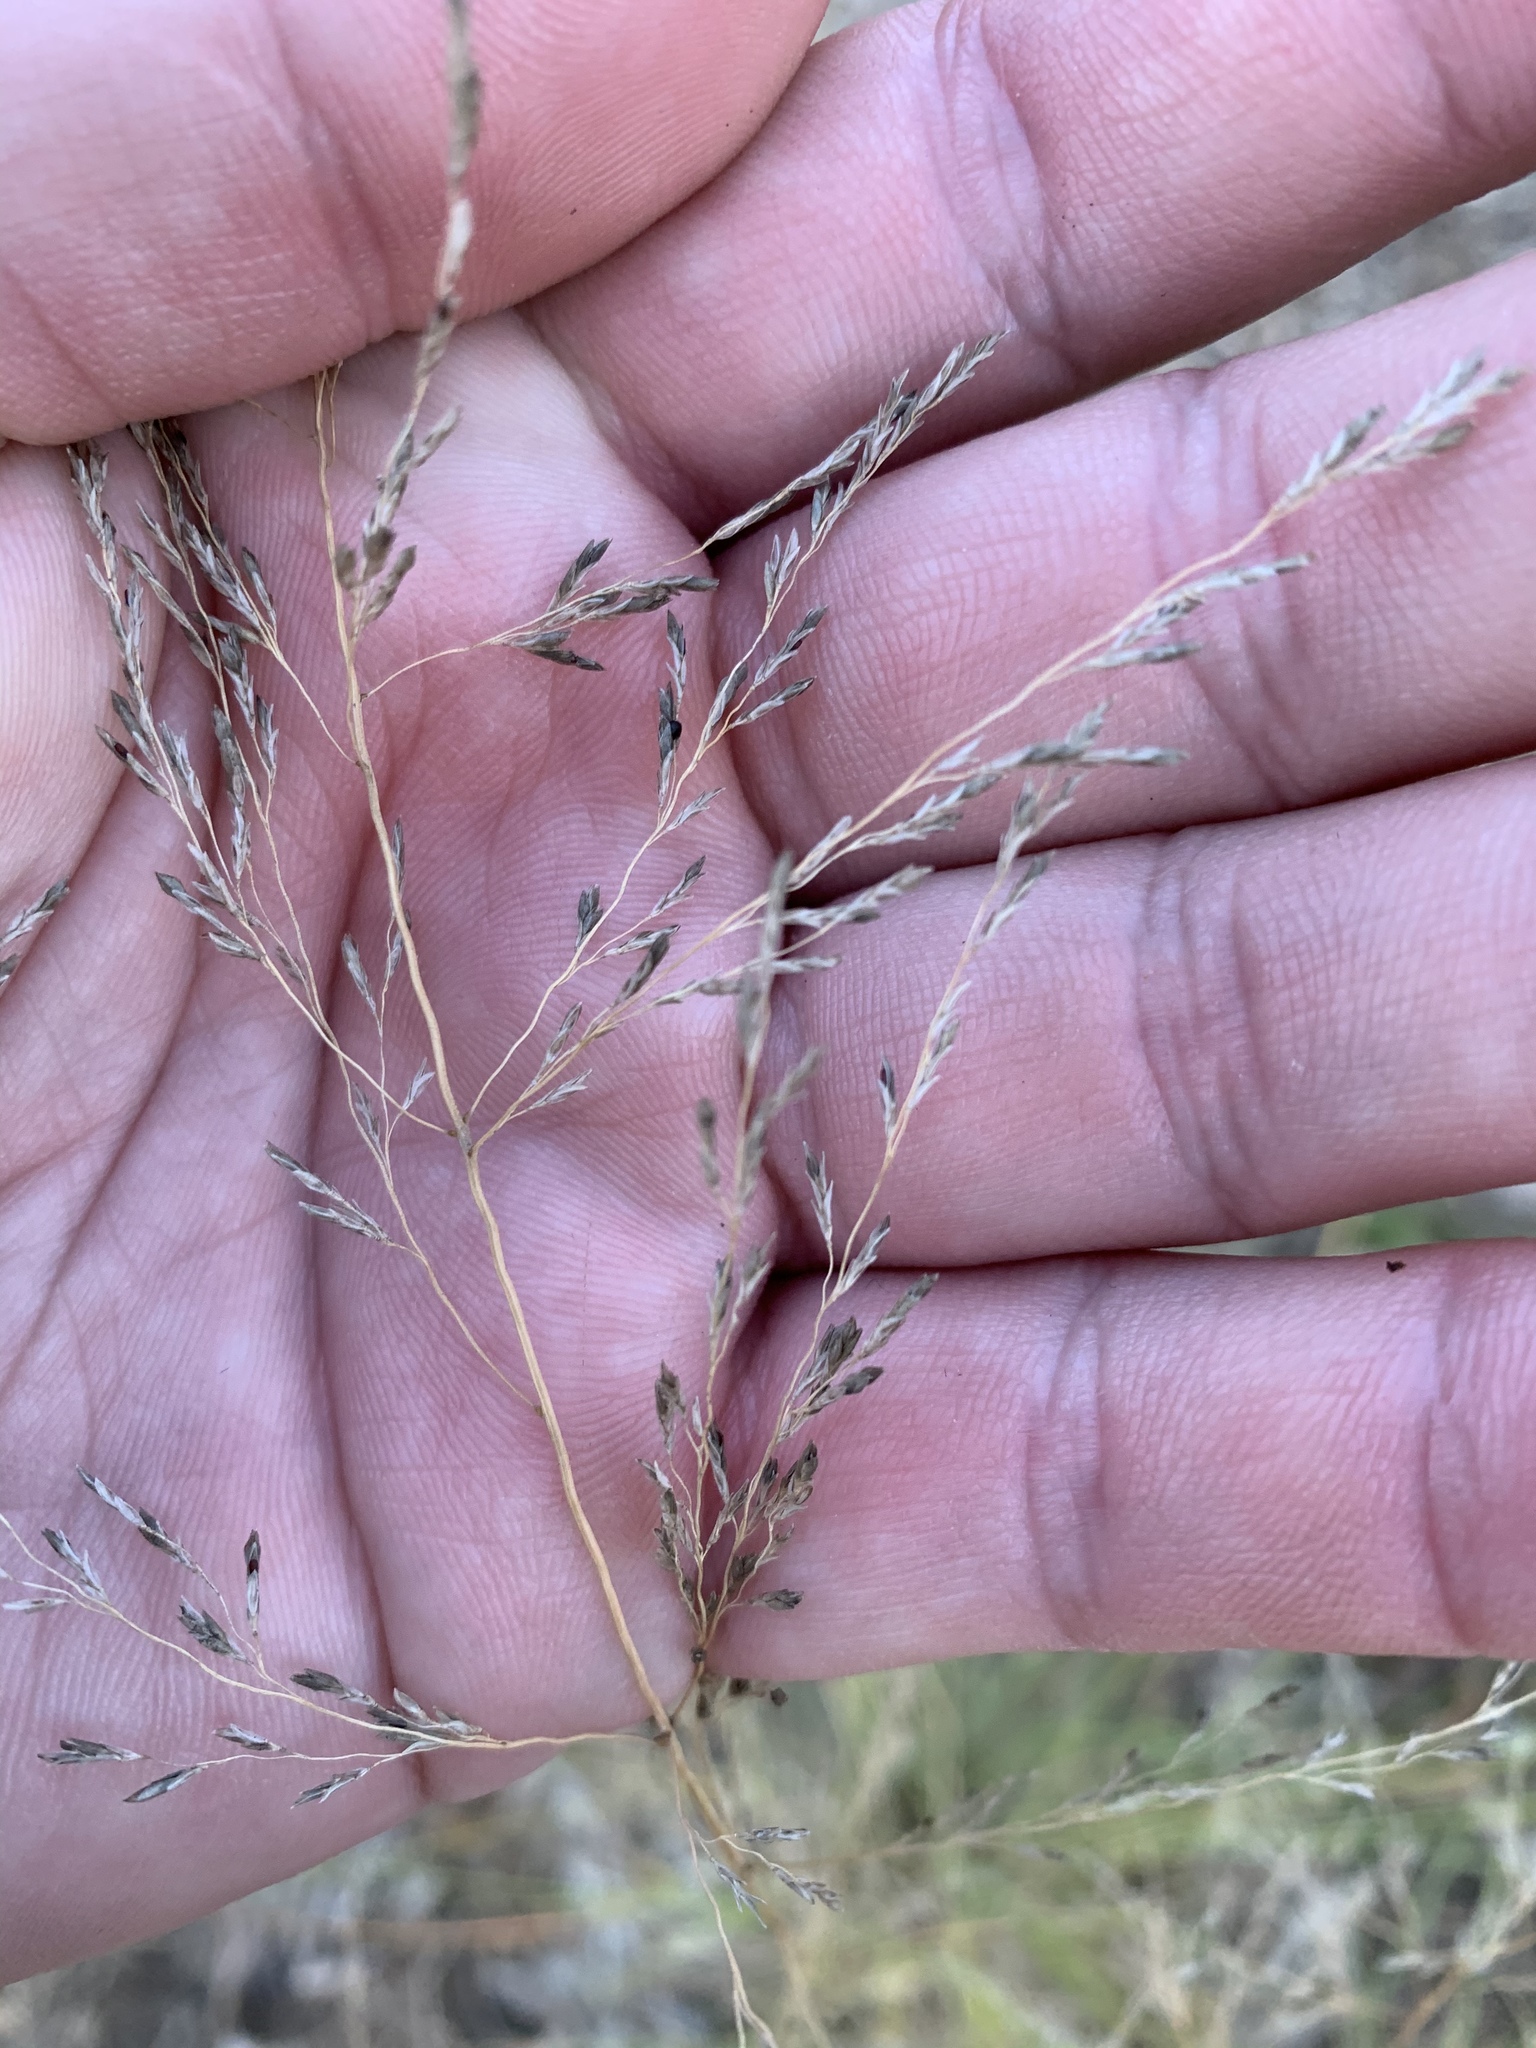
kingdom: Plantae
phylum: Tracheophyta
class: Liliopsida
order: Poales
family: Poaceae
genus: Eragrostis
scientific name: Eragrostis curvula
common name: African love-grass
